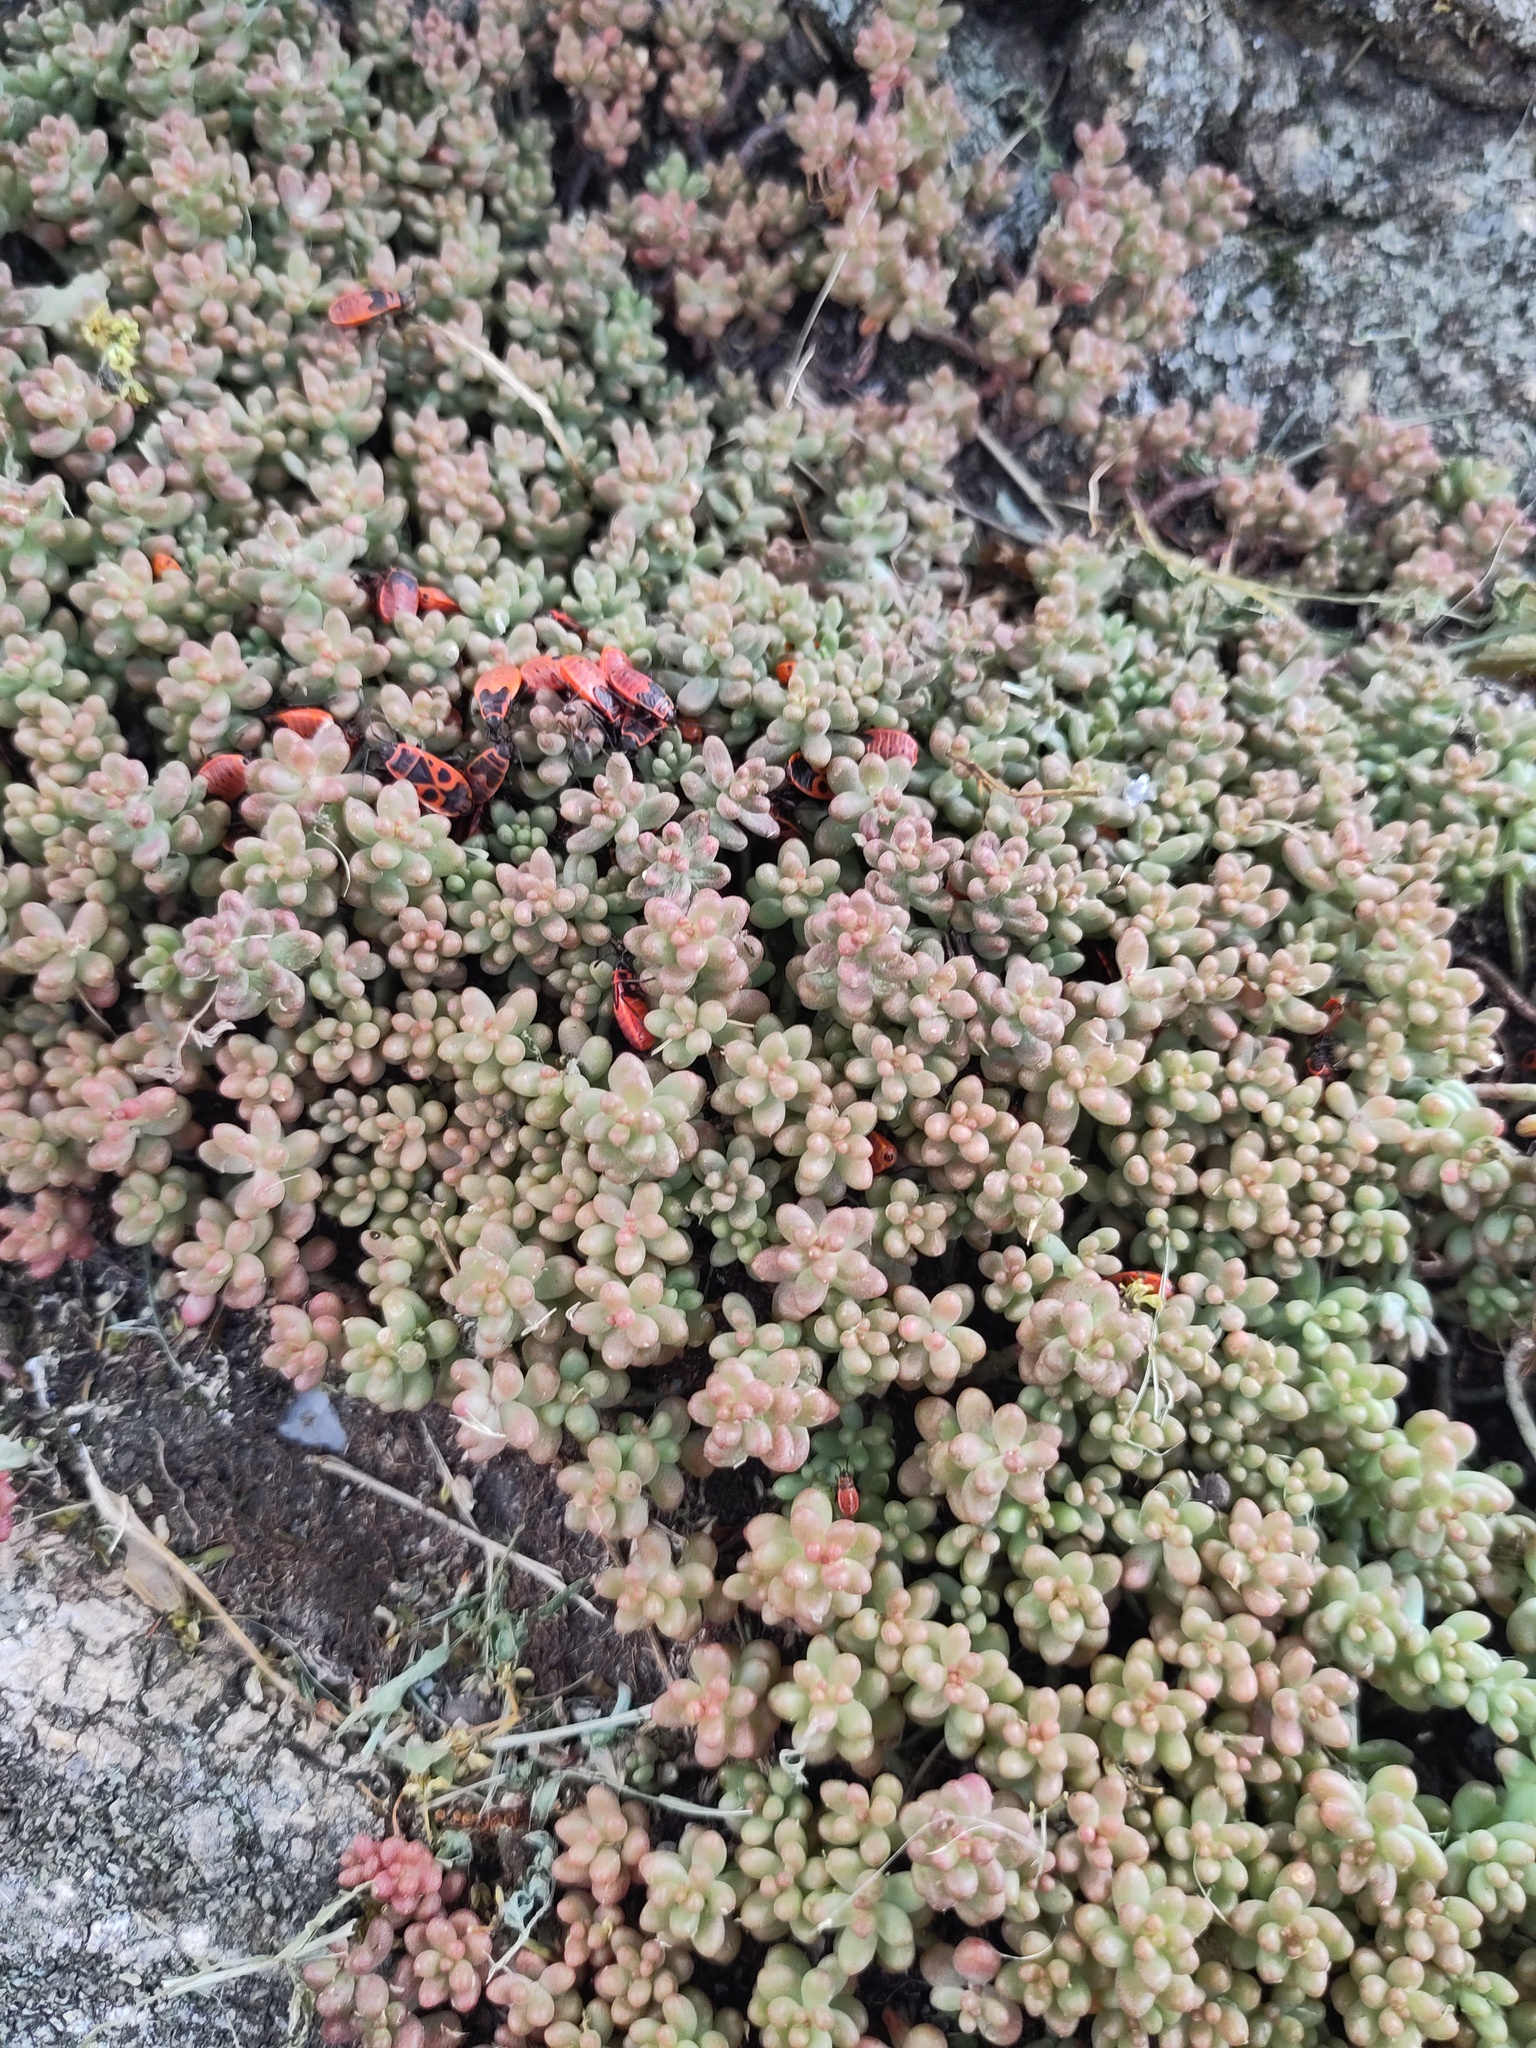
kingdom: Plantae
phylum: Tracheophyta
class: Magnoliopsida
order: Saxifragales
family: Crassulaceae
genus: Sedum
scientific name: Sedum album
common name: White stonecrop
